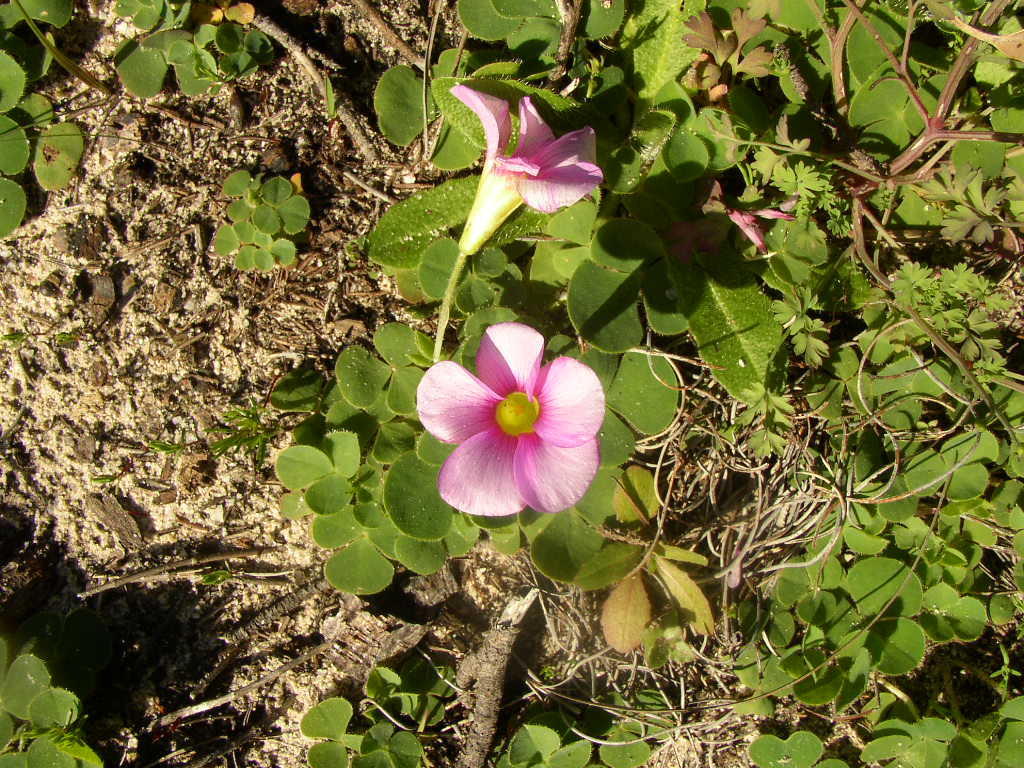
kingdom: Plantae
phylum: Tracheophyta
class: Magnoliopsida
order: Oxalidales
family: Oxalidaceae
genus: Oxalis
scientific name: Oxalis purpurea
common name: Purple woodsorrel
